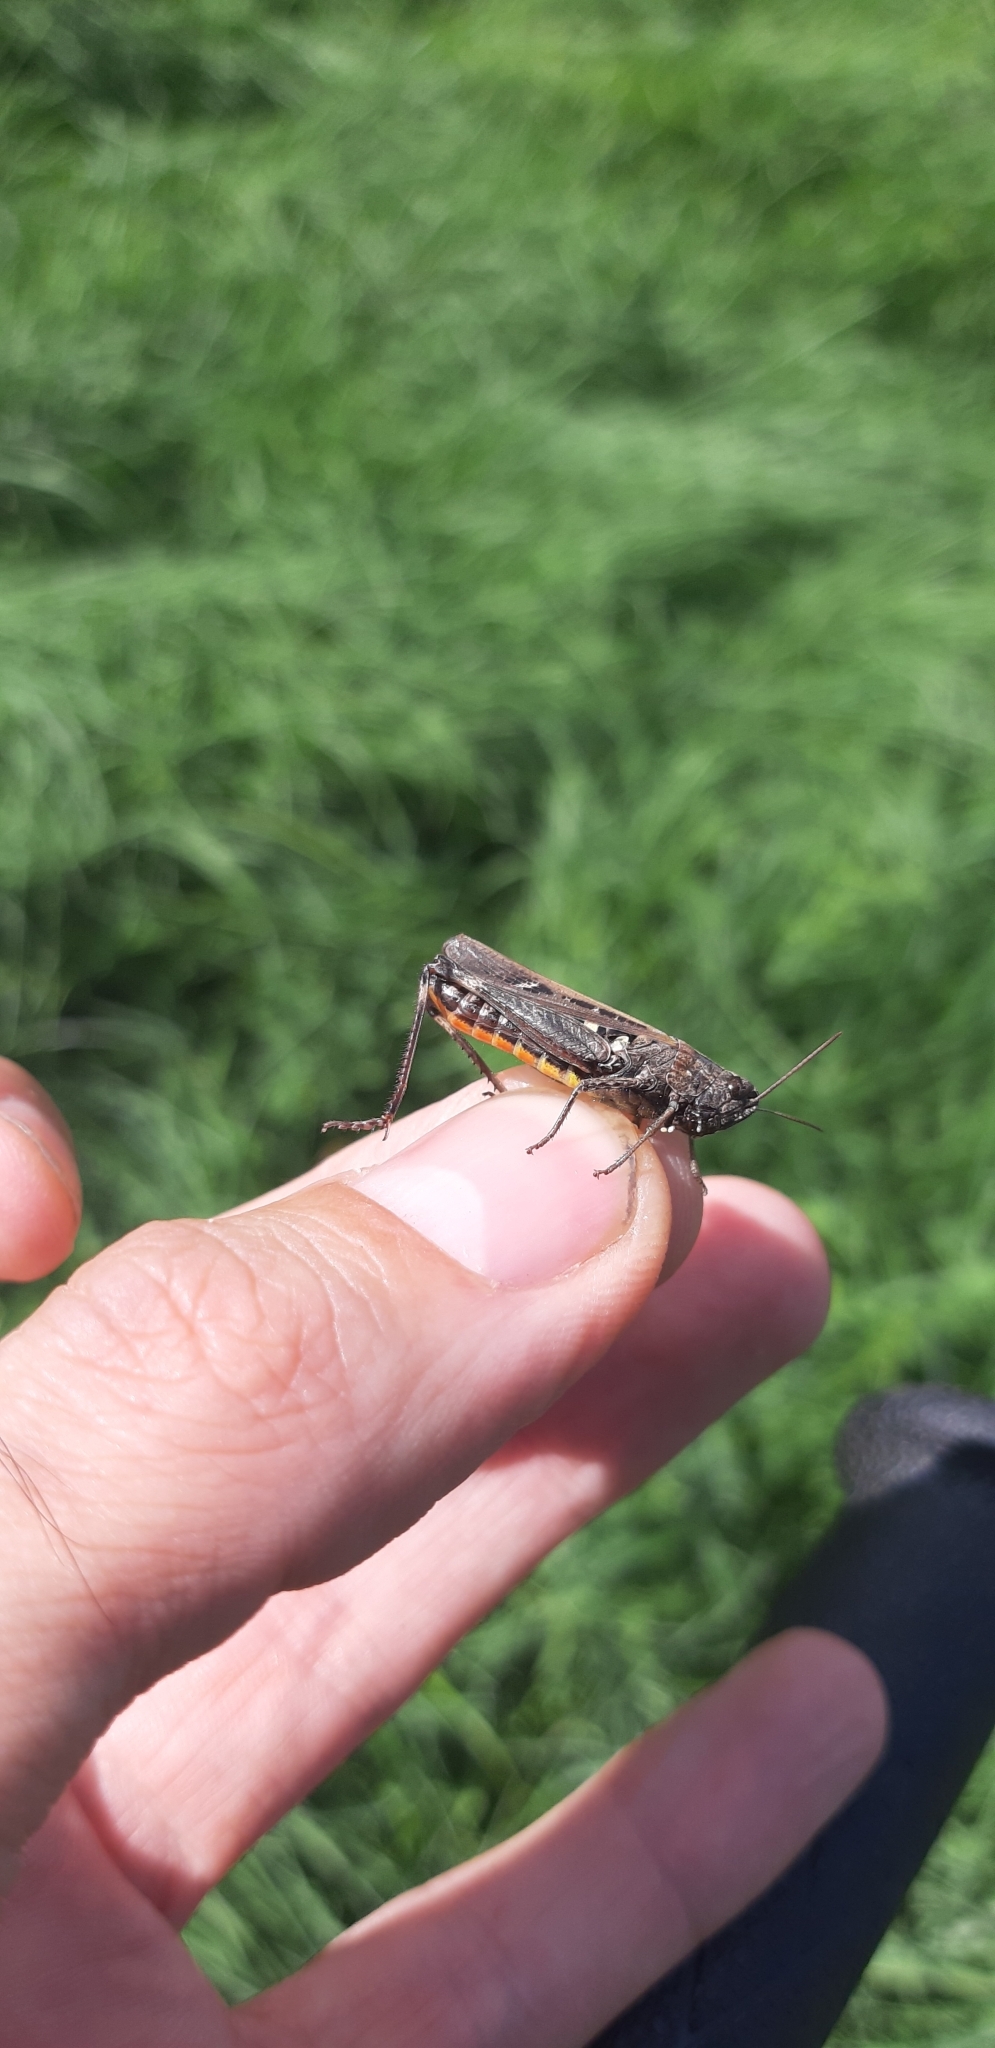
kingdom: Animalia
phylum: Arthropoda
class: Insecta
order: Orthoptera
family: Acrididae
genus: Omocestus
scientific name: Omocestus rufipes
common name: Woodland grasshopper
